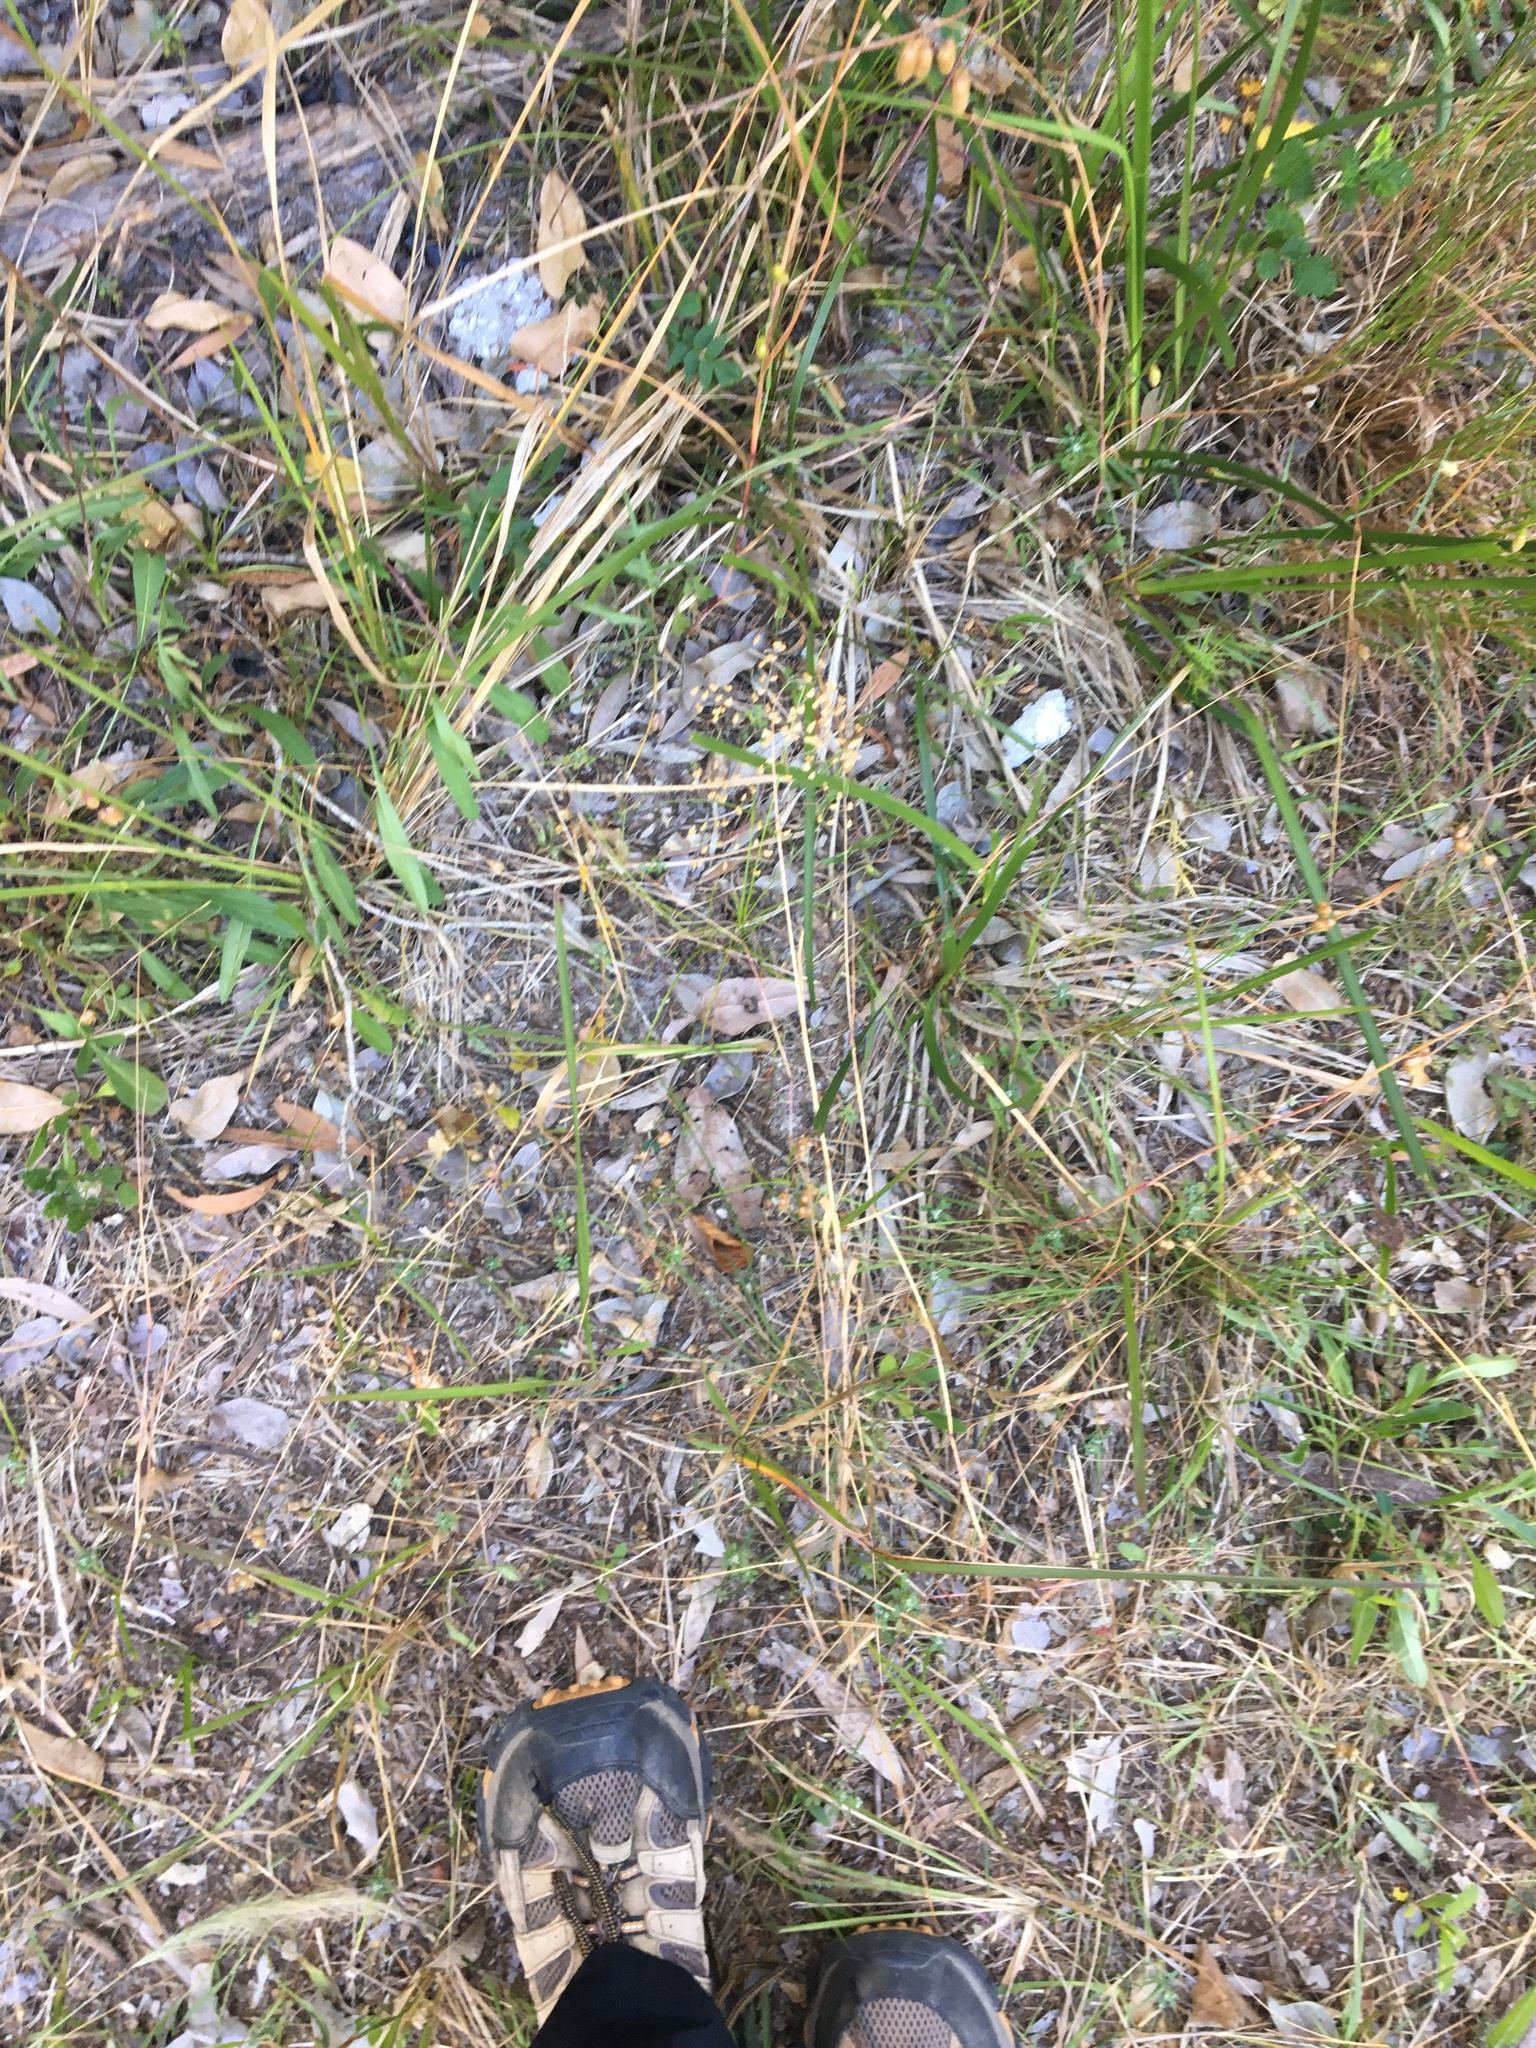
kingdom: Plantae
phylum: Tracheophyta
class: Liliopsida
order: Poales
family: Poaceae
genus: Briza
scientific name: Briza minor
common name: Lesser quaking-grass
